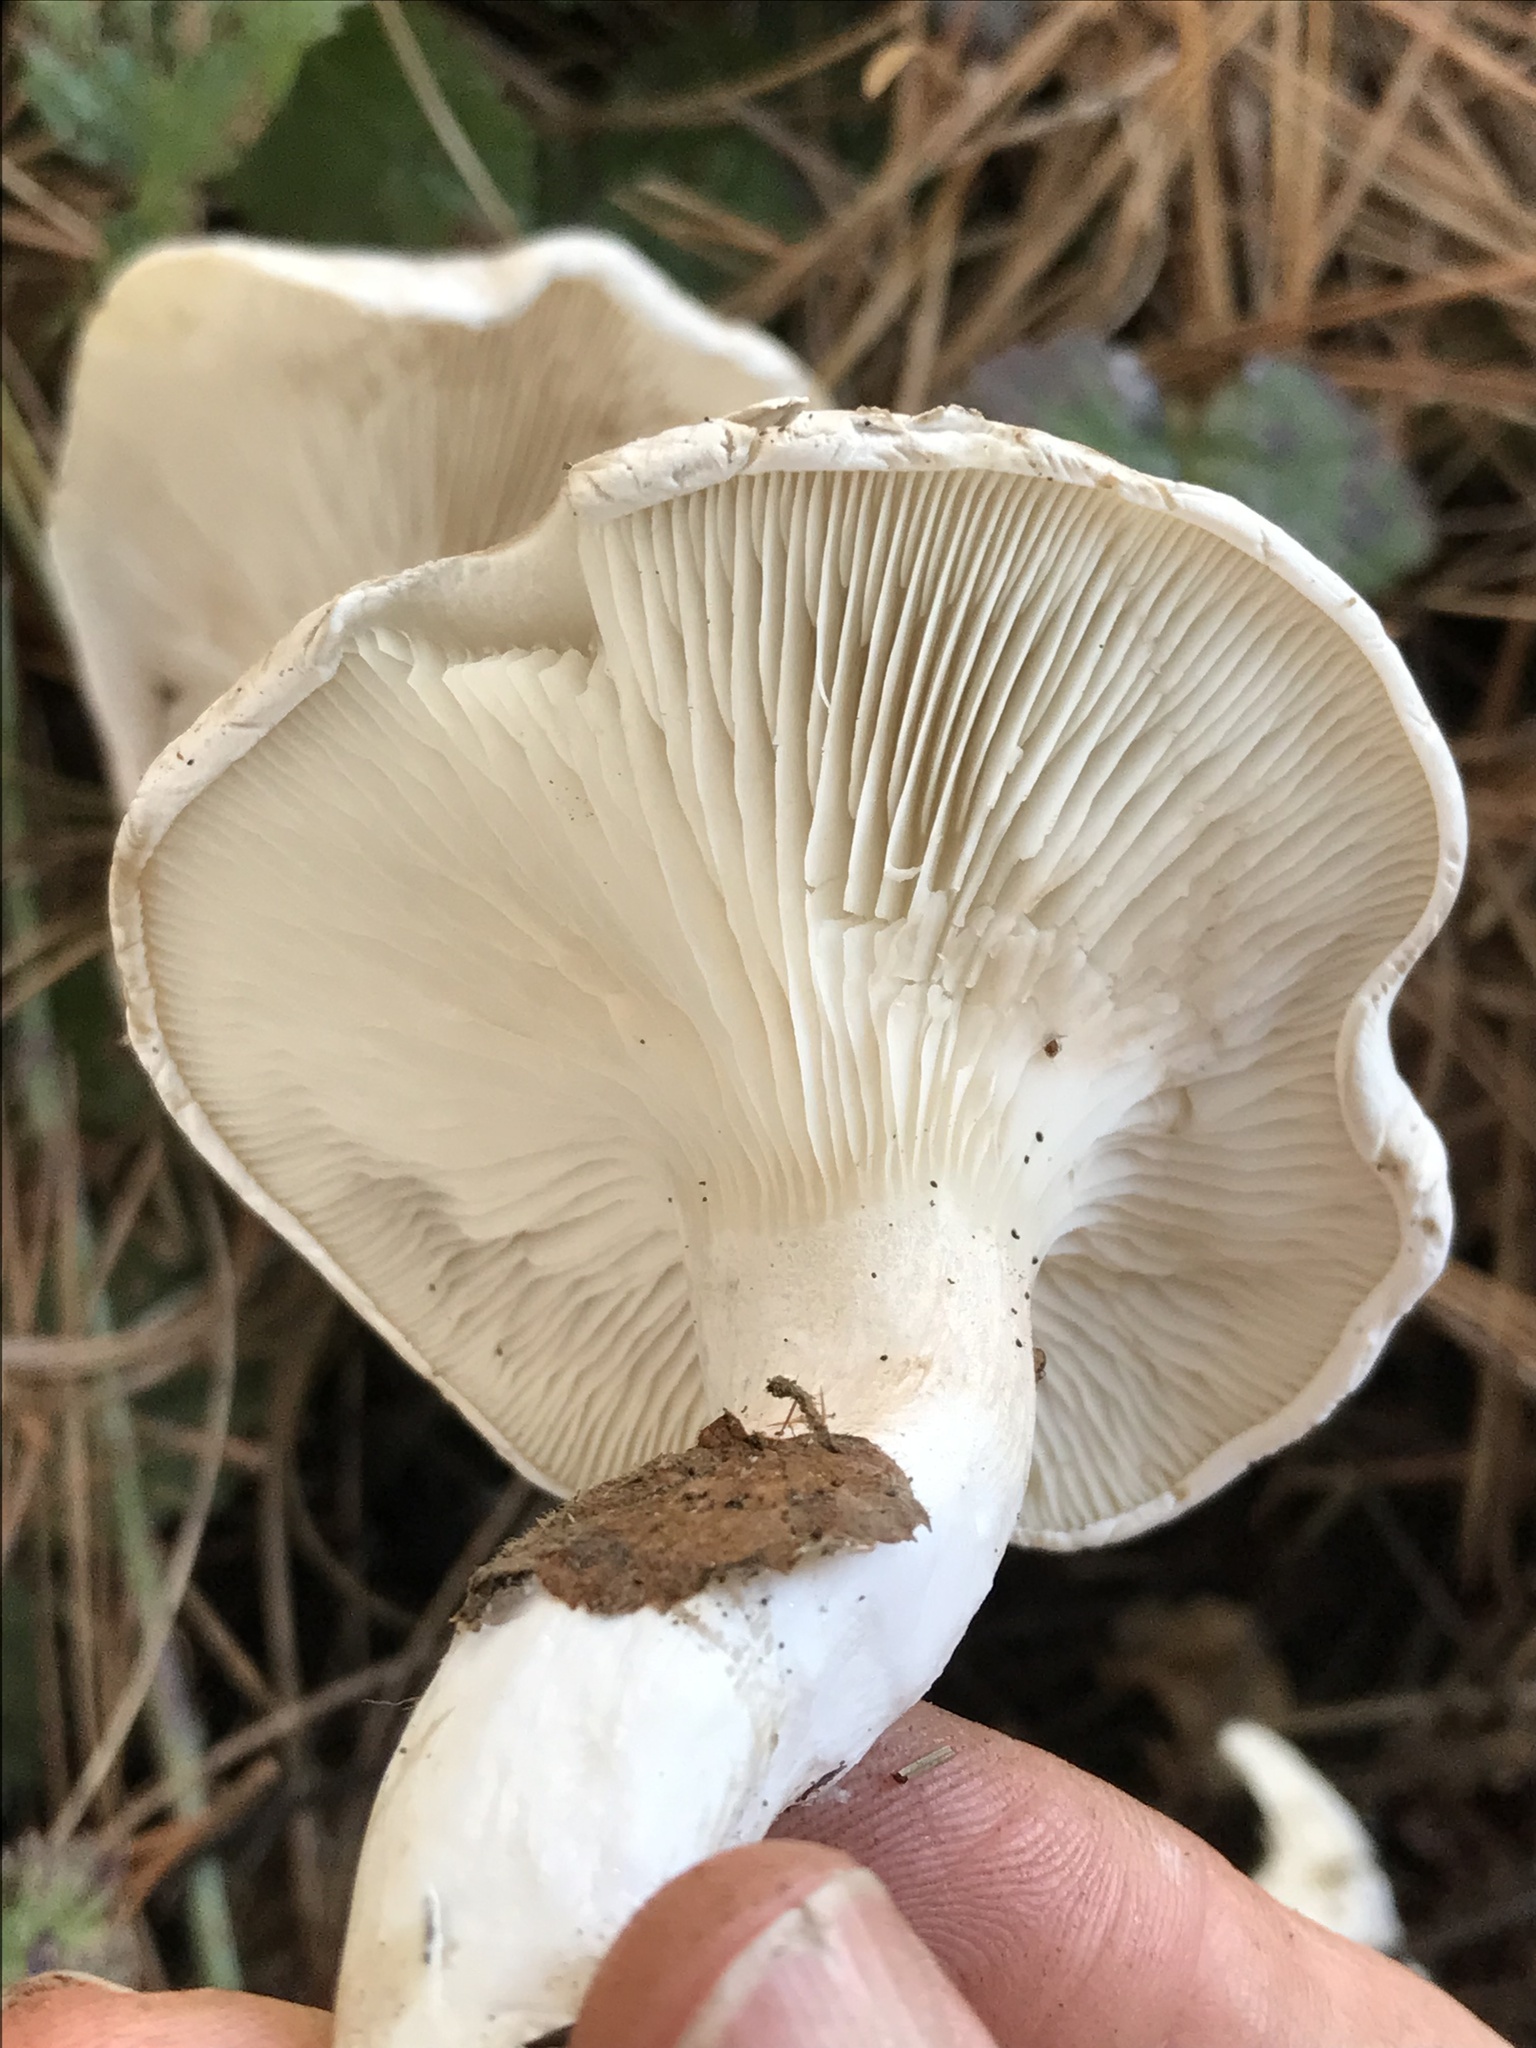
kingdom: Fungi
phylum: Basidiomycota
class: Agaricomycetes
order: Agaricales
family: Entolomataceae
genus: Clitopilus
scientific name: Clitopilus prunulus
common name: The miller
